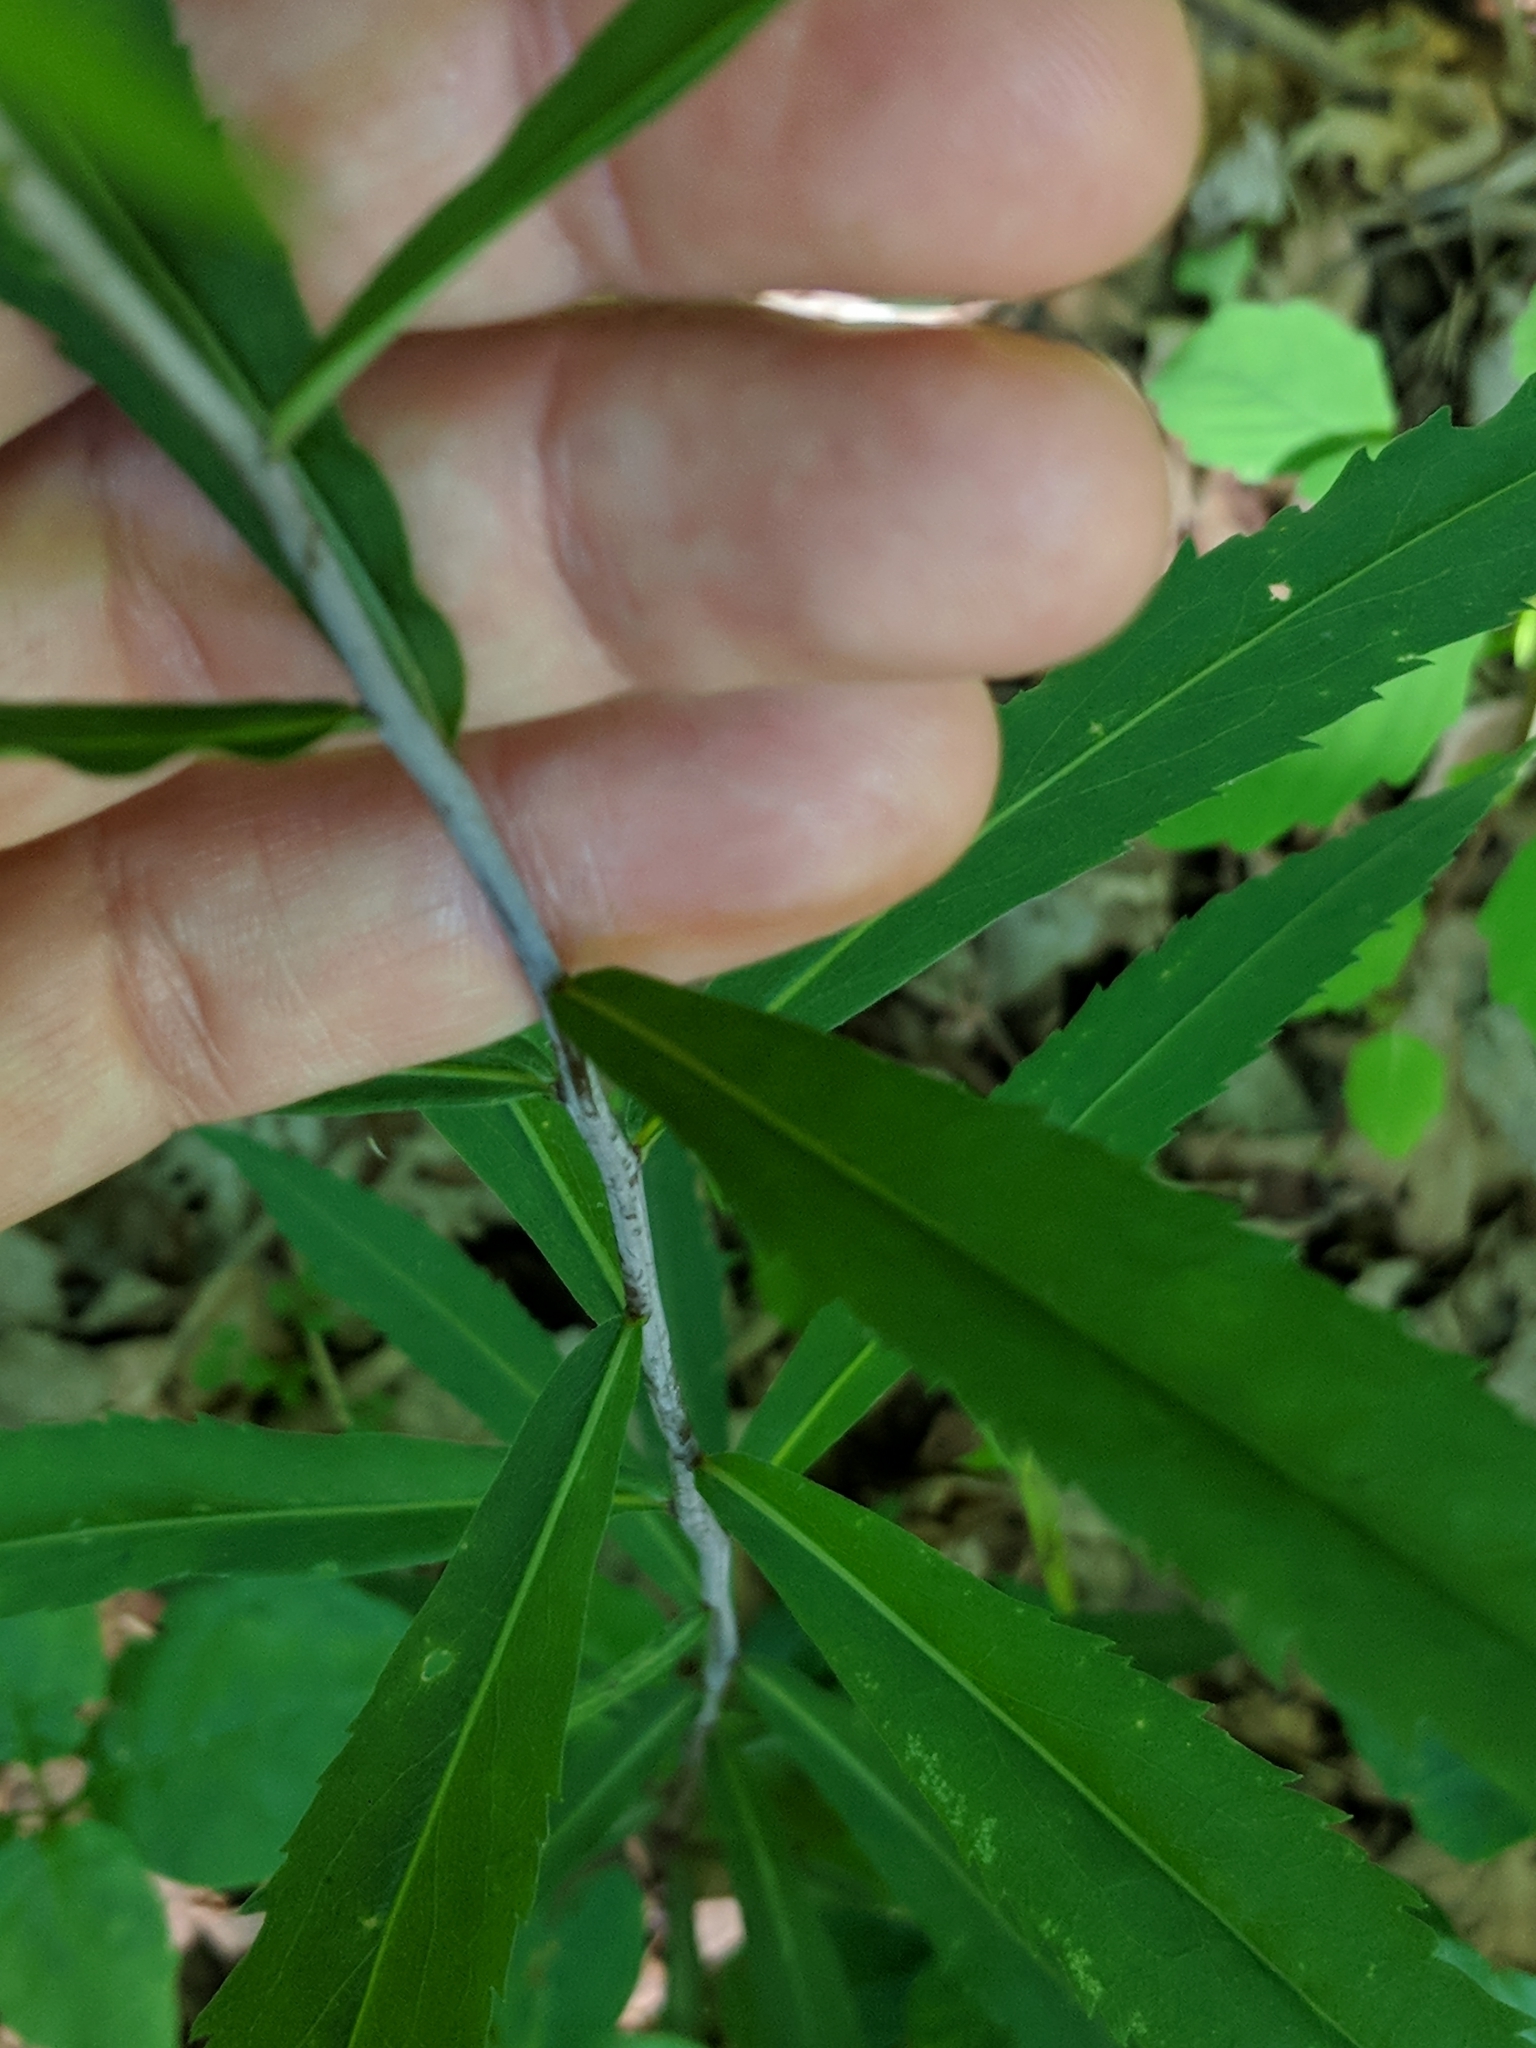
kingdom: Plantae
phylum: Tracheophyta
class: Magnoliopsida
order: Asterales
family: Asteraceae
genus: Solidago
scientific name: Solidago caesia
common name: Woodland goldenrod
